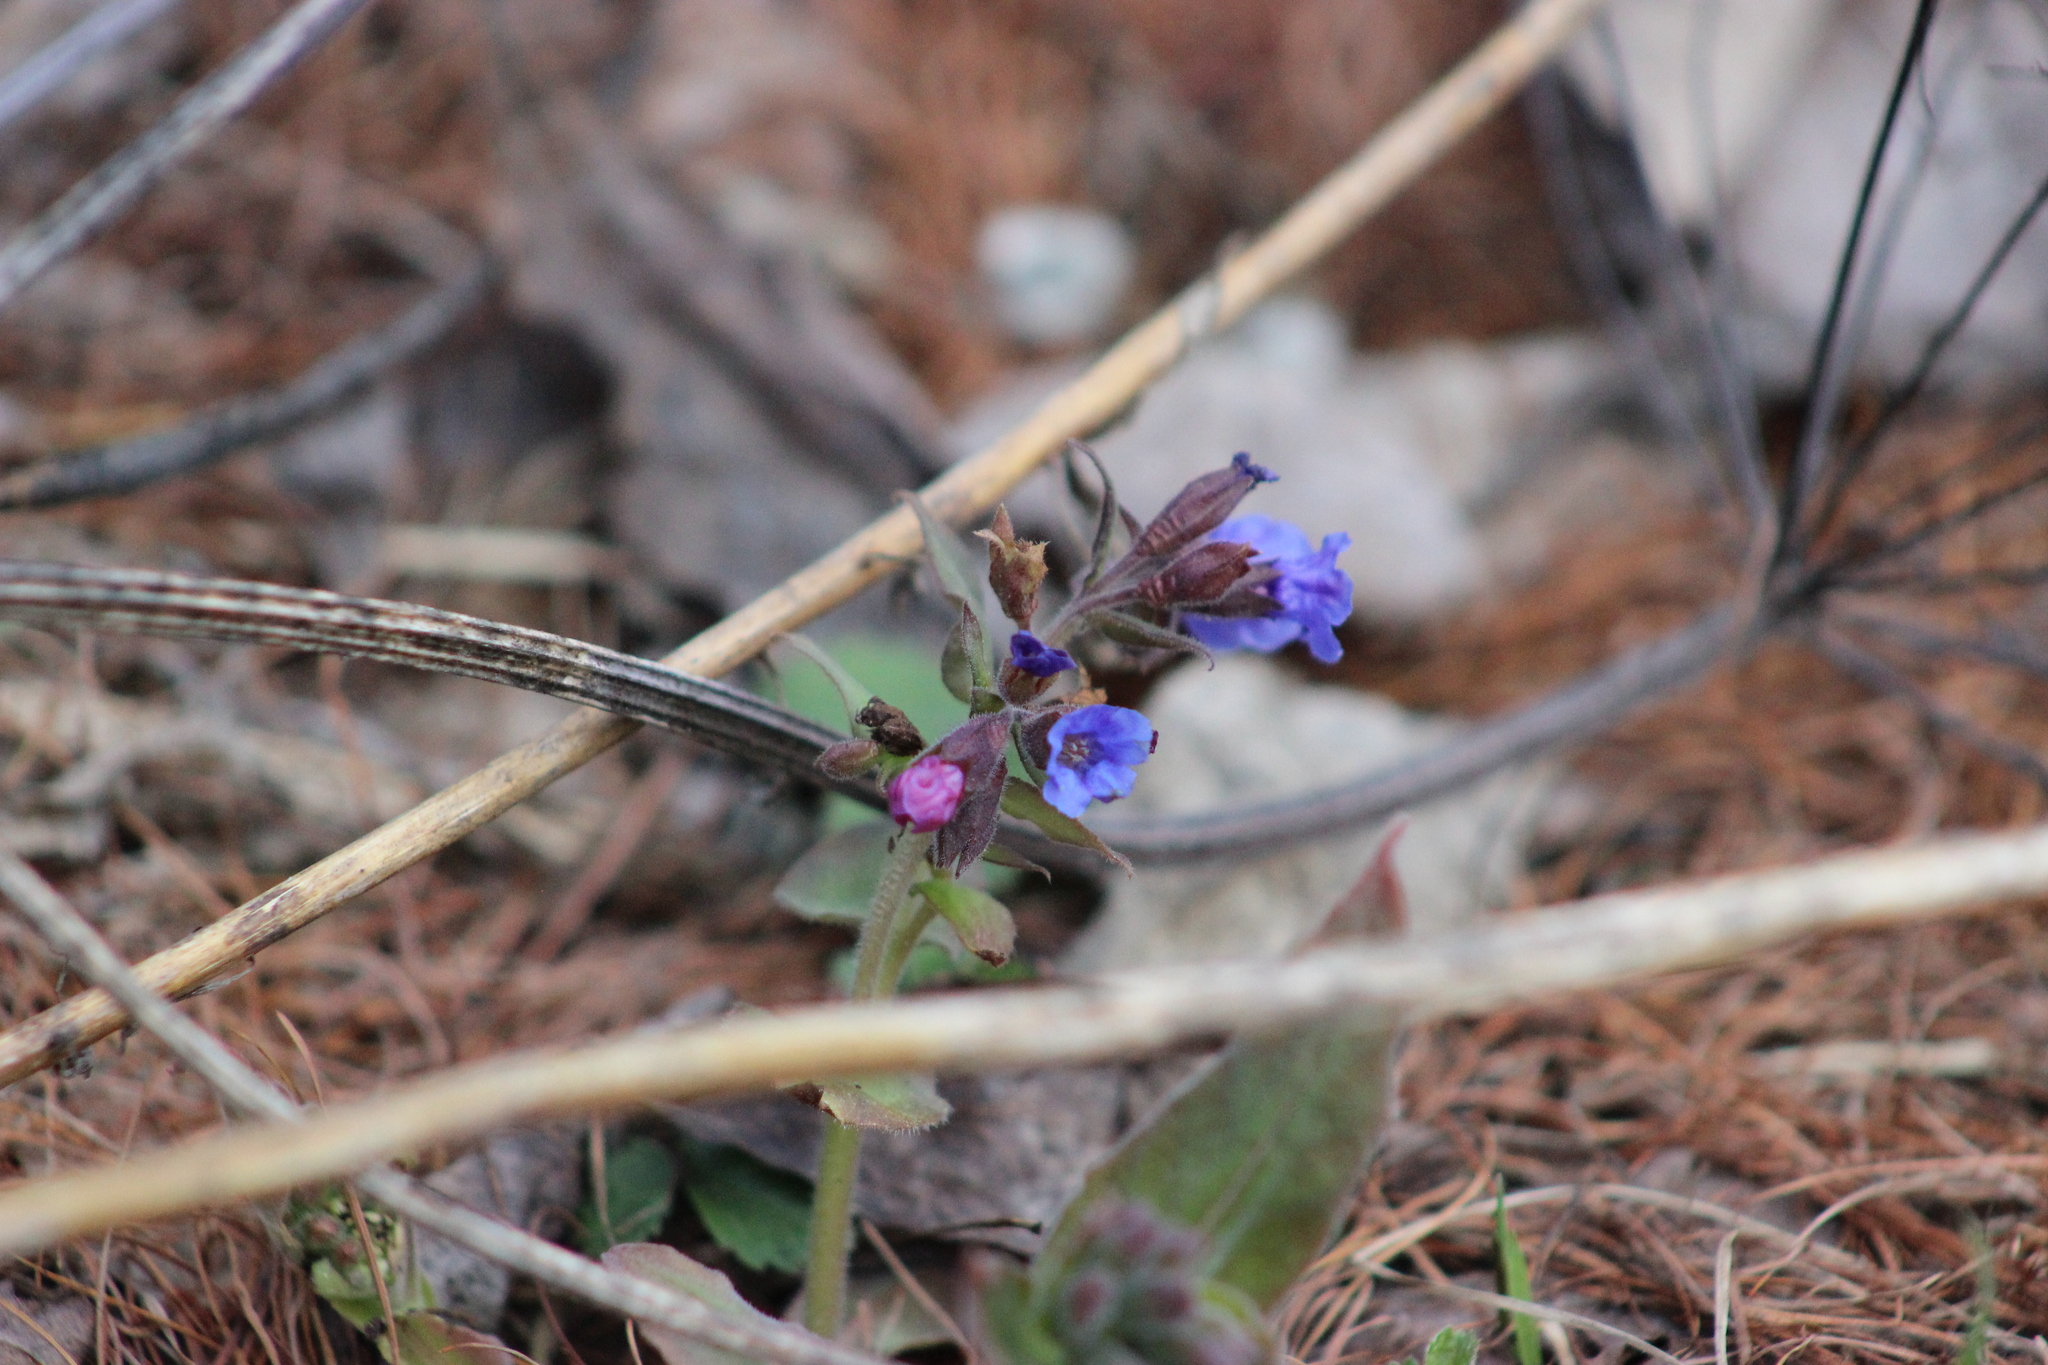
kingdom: Plantae
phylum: Tracheophyta
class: Magnoliopsida
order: Boraginales
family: Boraginaceae
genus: Pulmonaria
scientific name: Pulmonaria mollis
